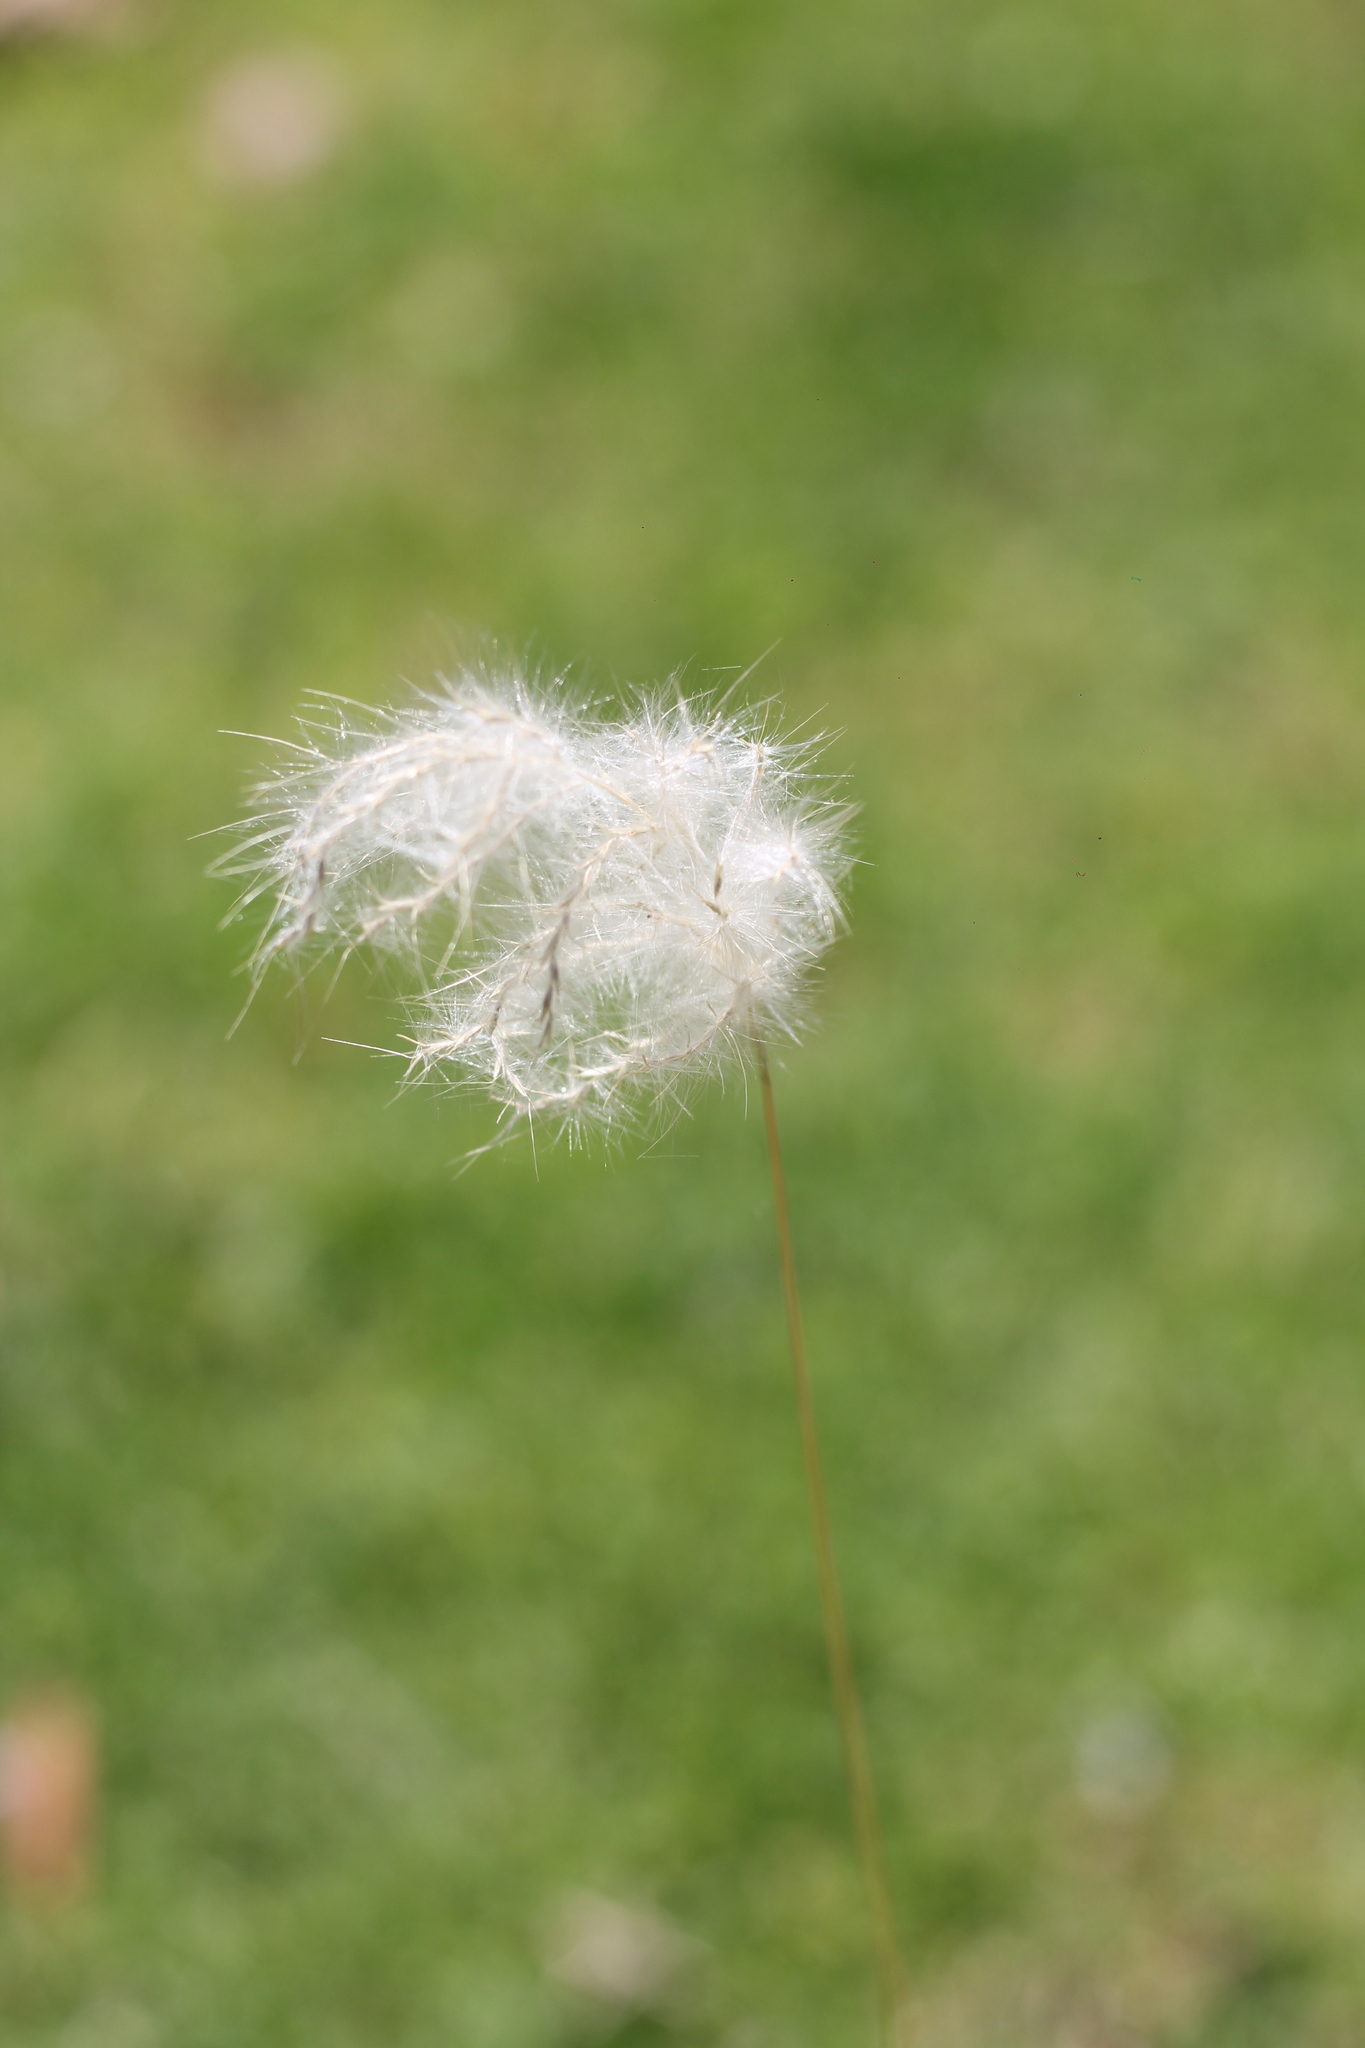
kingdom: Plantae
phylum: Tracheophyta
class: Liliopsida
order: Poales
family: Poaceae
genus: Bothriochloa
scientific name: Bothriochloa laguroides
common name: Silver bluestem
